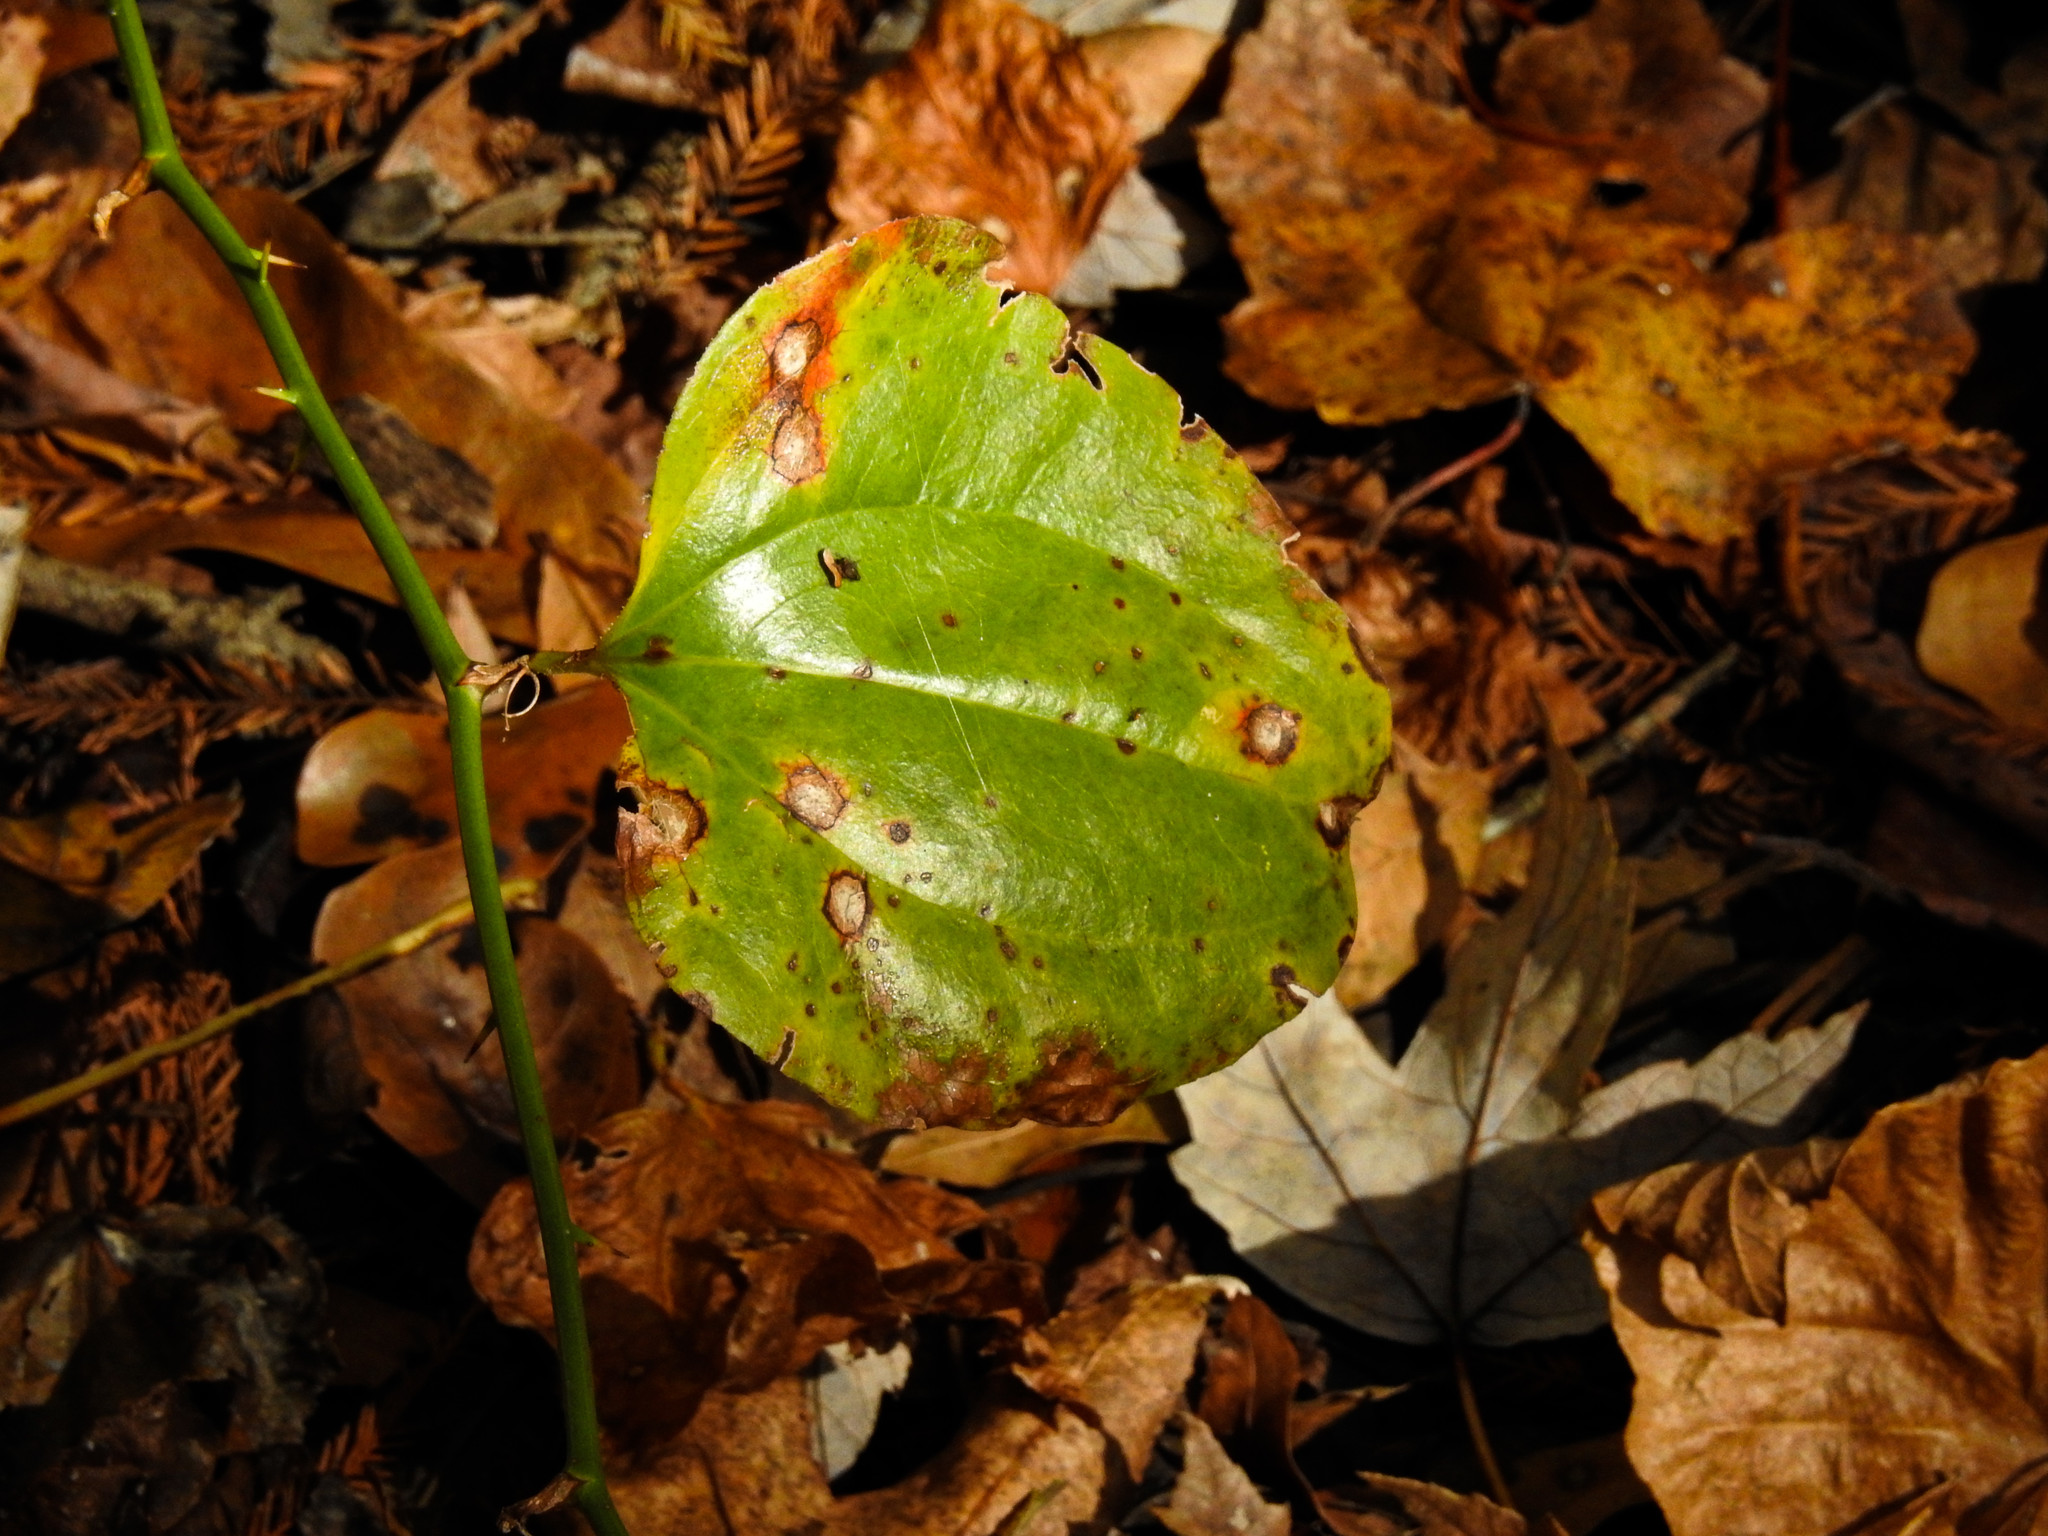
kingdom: Plantae
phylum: Tracheophyta
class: Liliopsida
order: Liliales
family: Smilacaceae
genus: Smilax
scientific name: Smilax rotundifolia
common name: Bullbriar
